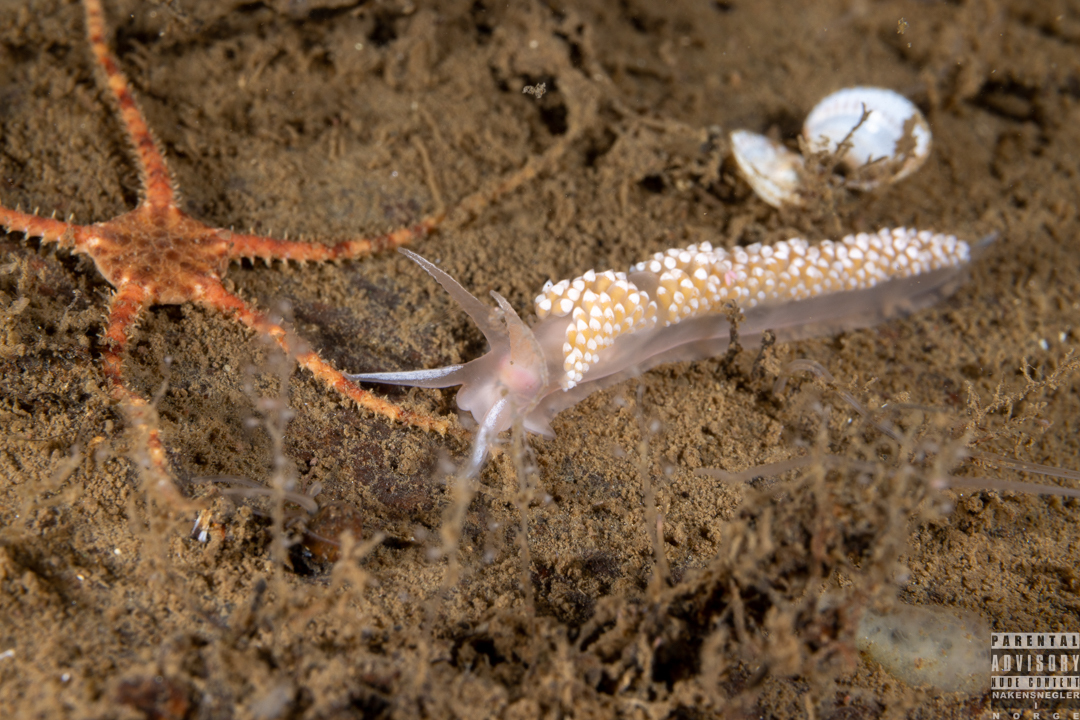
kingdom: Animalia
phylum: Mollusca
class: Gastropoda
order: Nudibranchia
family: Coryphellidae
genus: Coryphella
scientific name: Coryphella verrucosa
